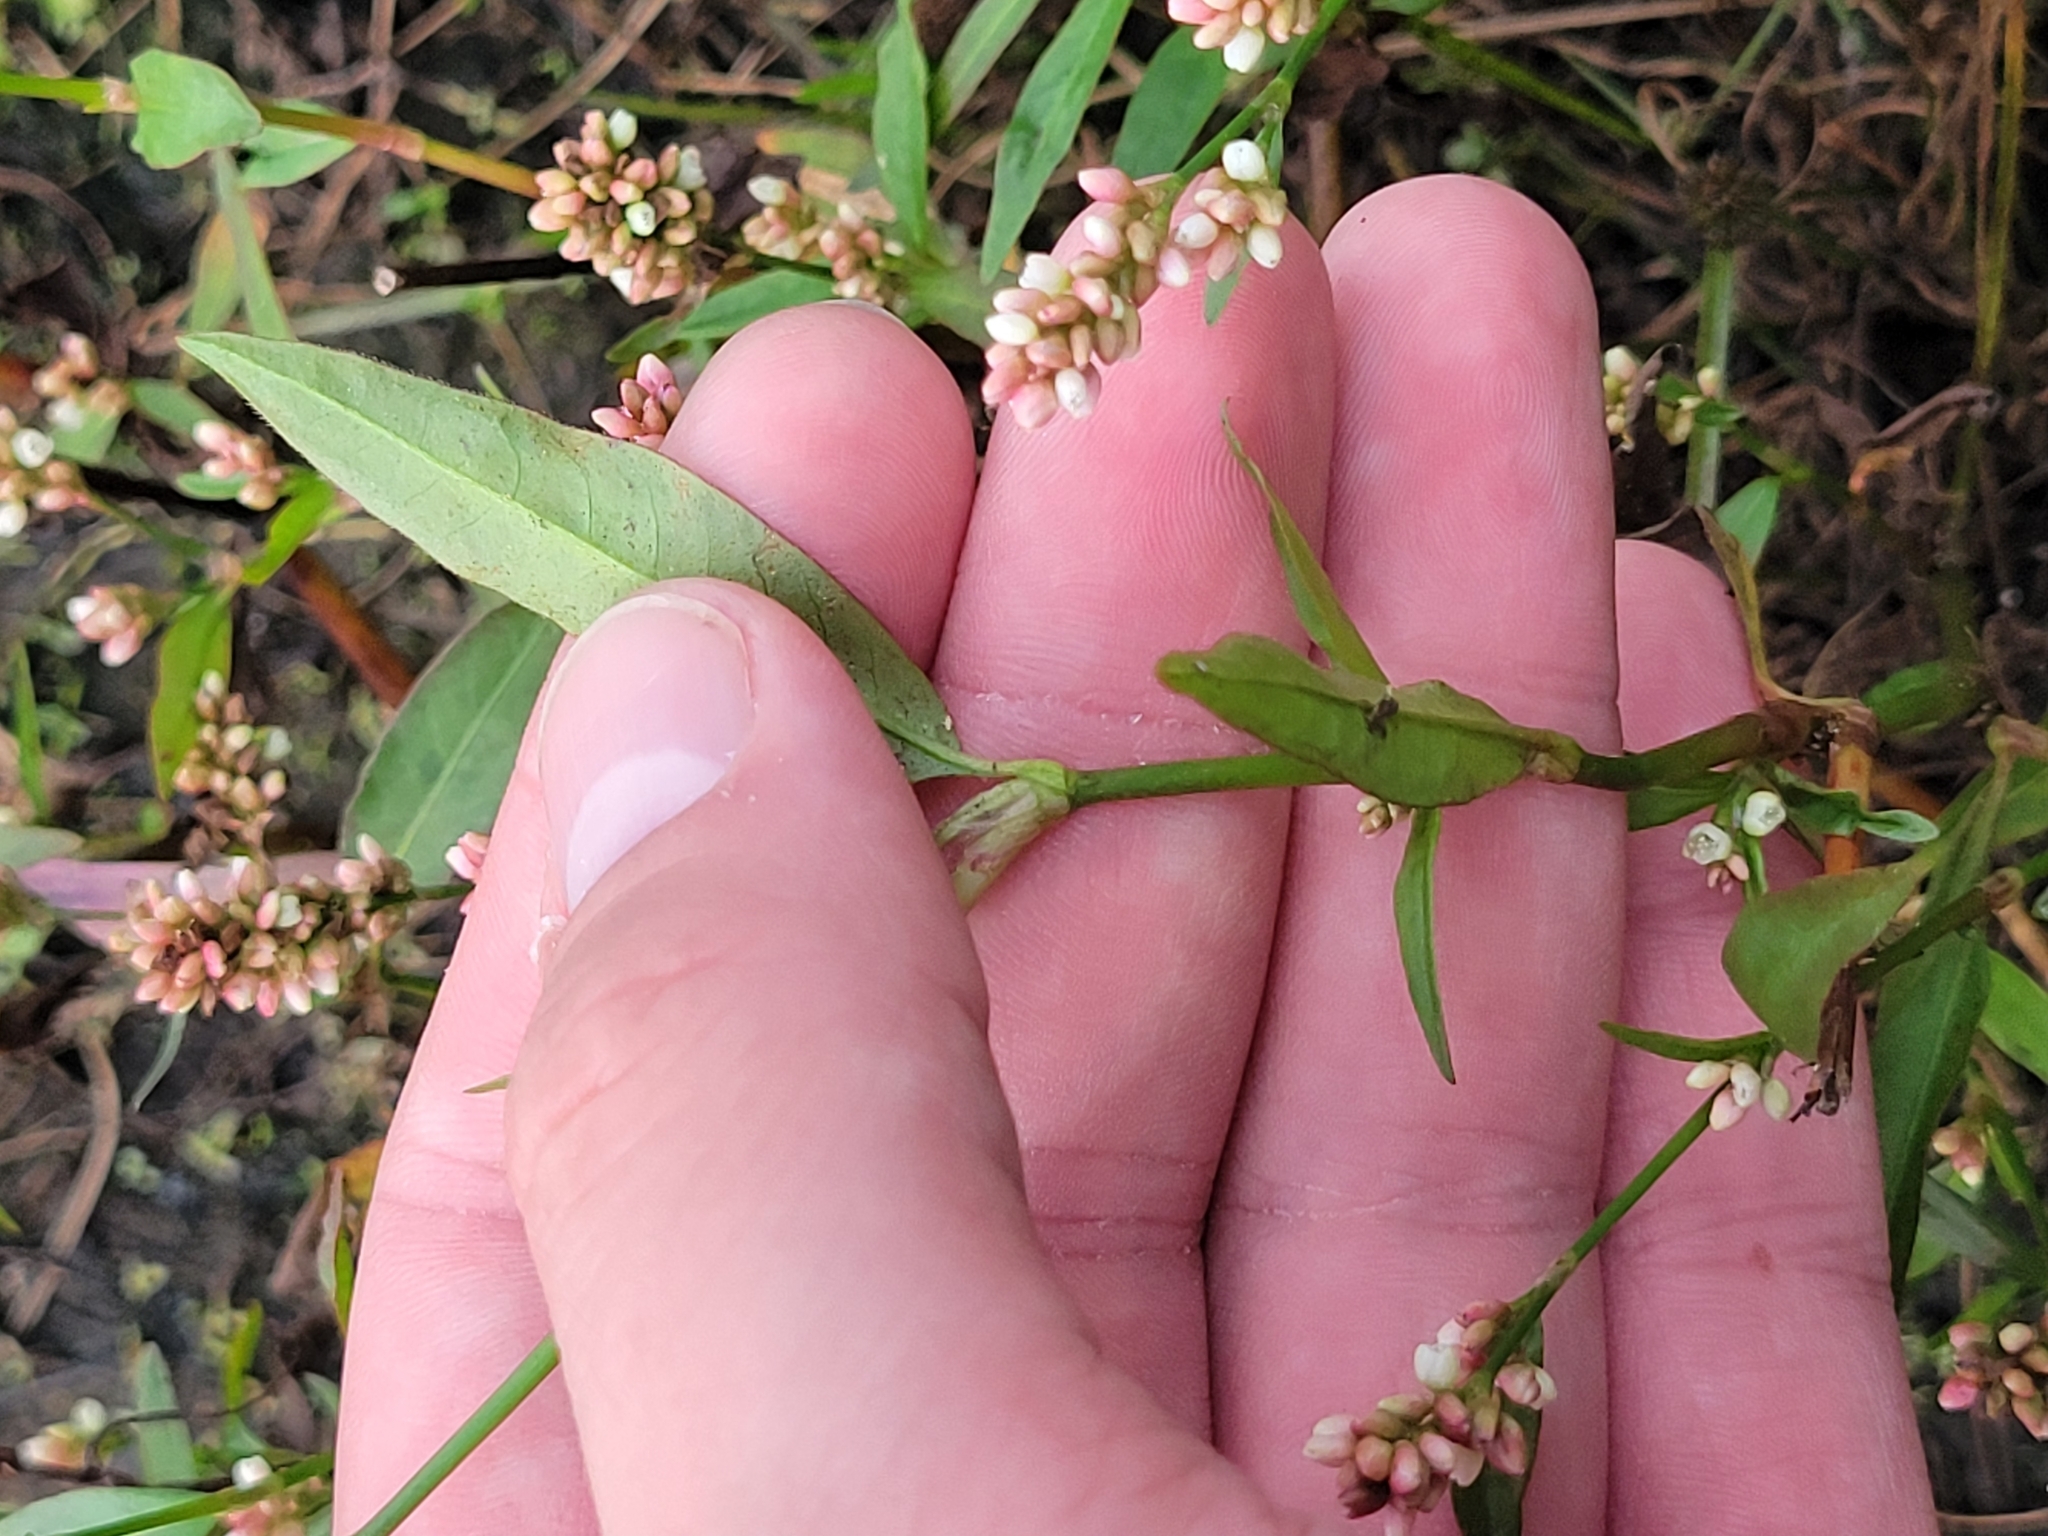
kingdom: Plantae
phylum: Tracheophyta
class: Magnoliopsida
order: Caryophyllales
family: Polygonaceae
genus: Persicaria
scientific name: Persicaria maculosa
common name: Redshank
